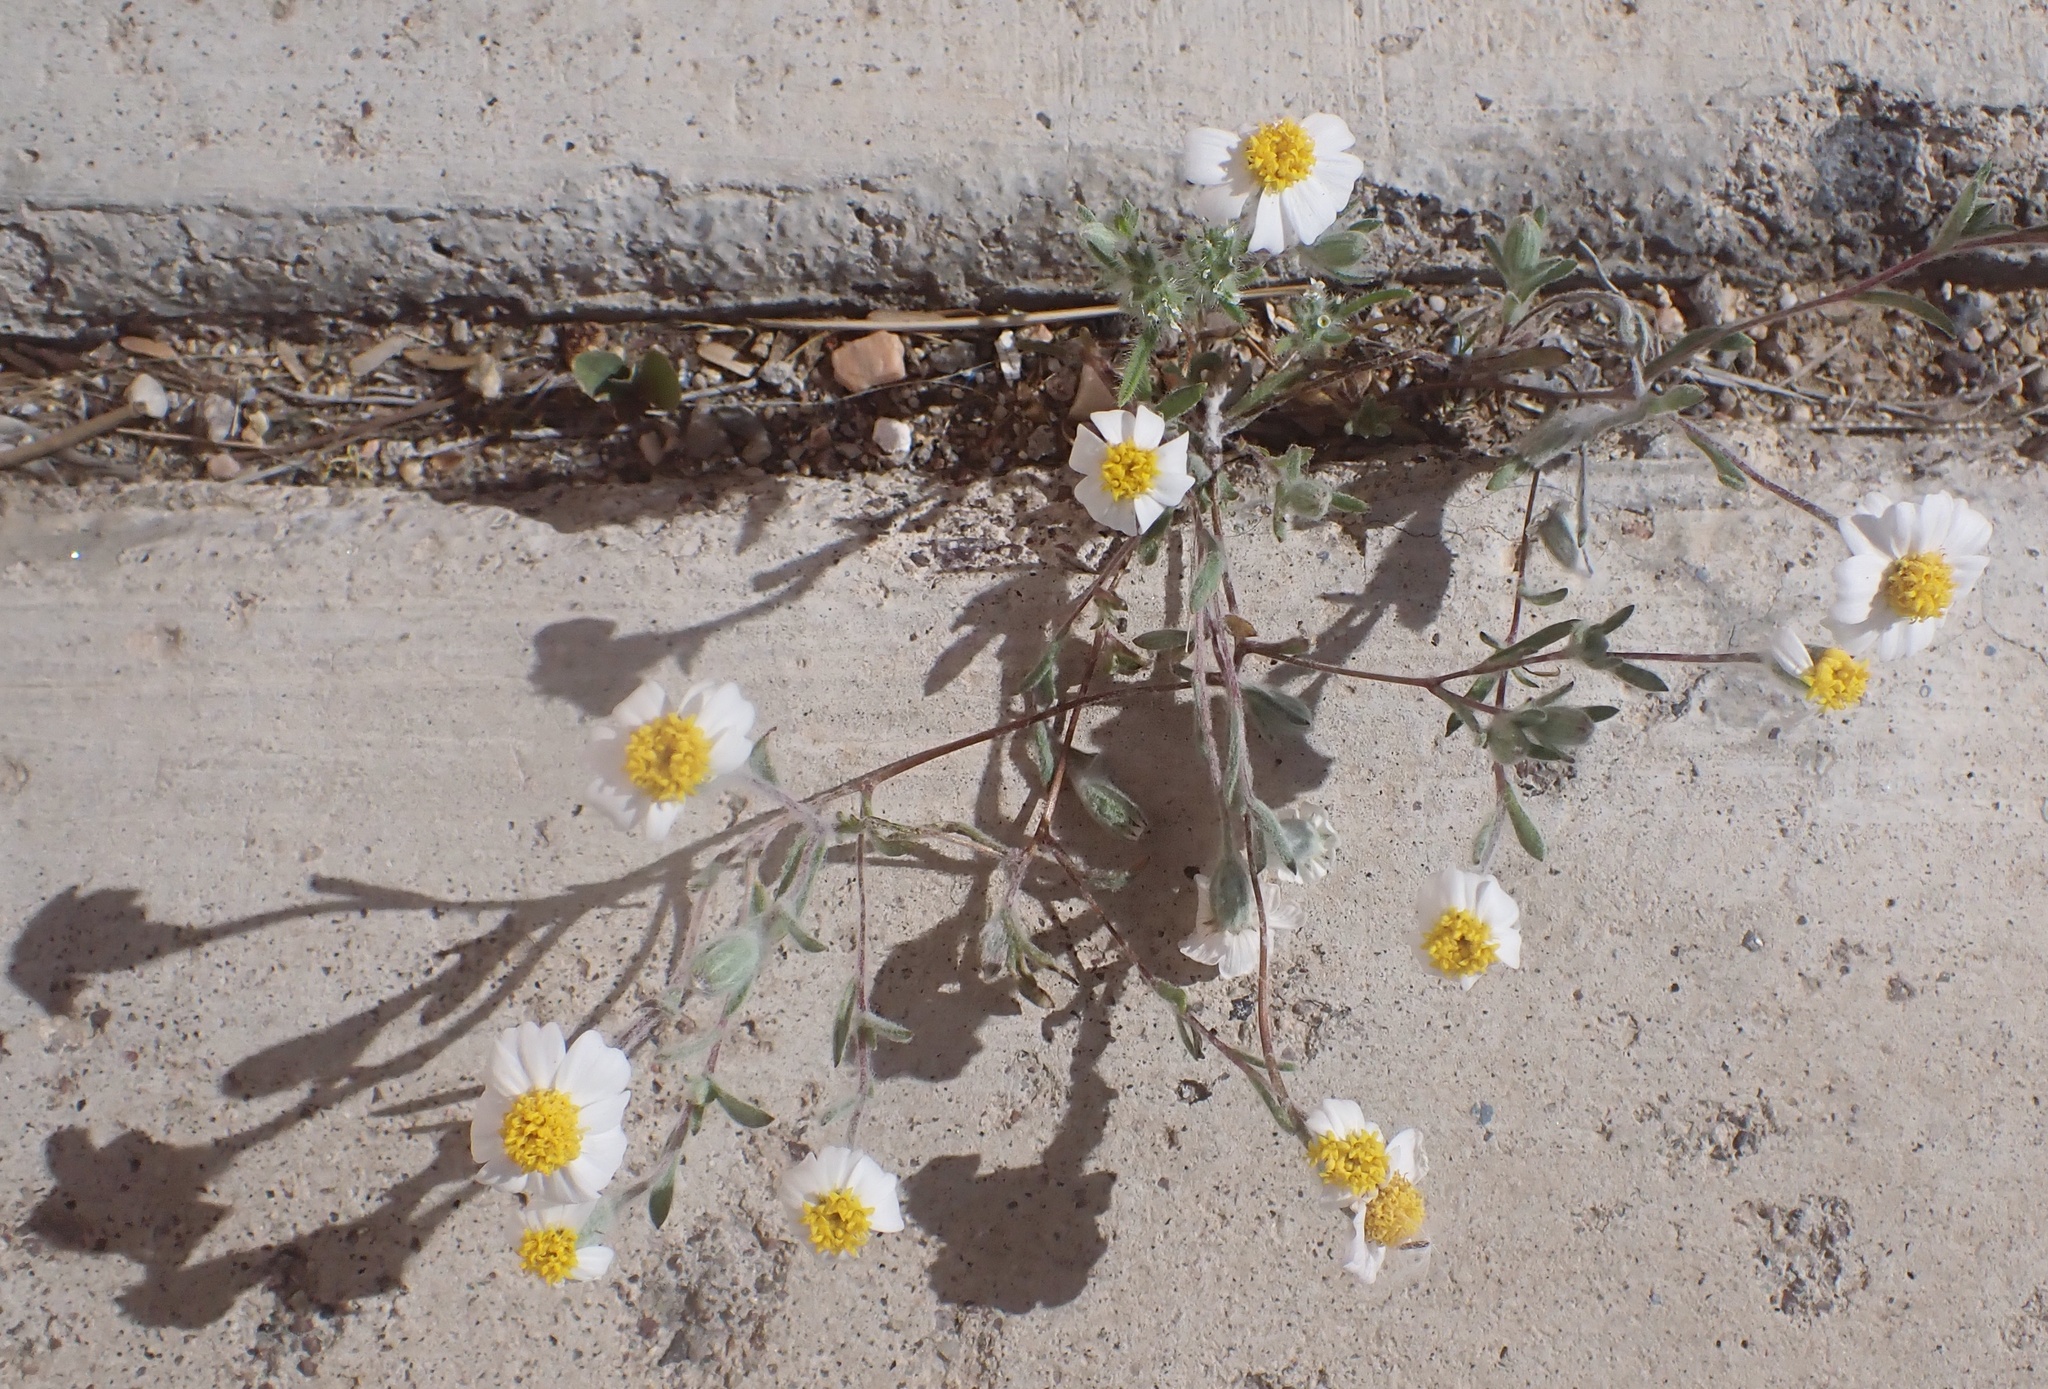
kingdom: Plantae
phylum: Tracheophyta
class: Magnoliopsida
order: Asterales
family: Asteraceae
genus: Eriophyllum
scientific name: Eriophyllum lanosum
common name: White easter-bonnets
